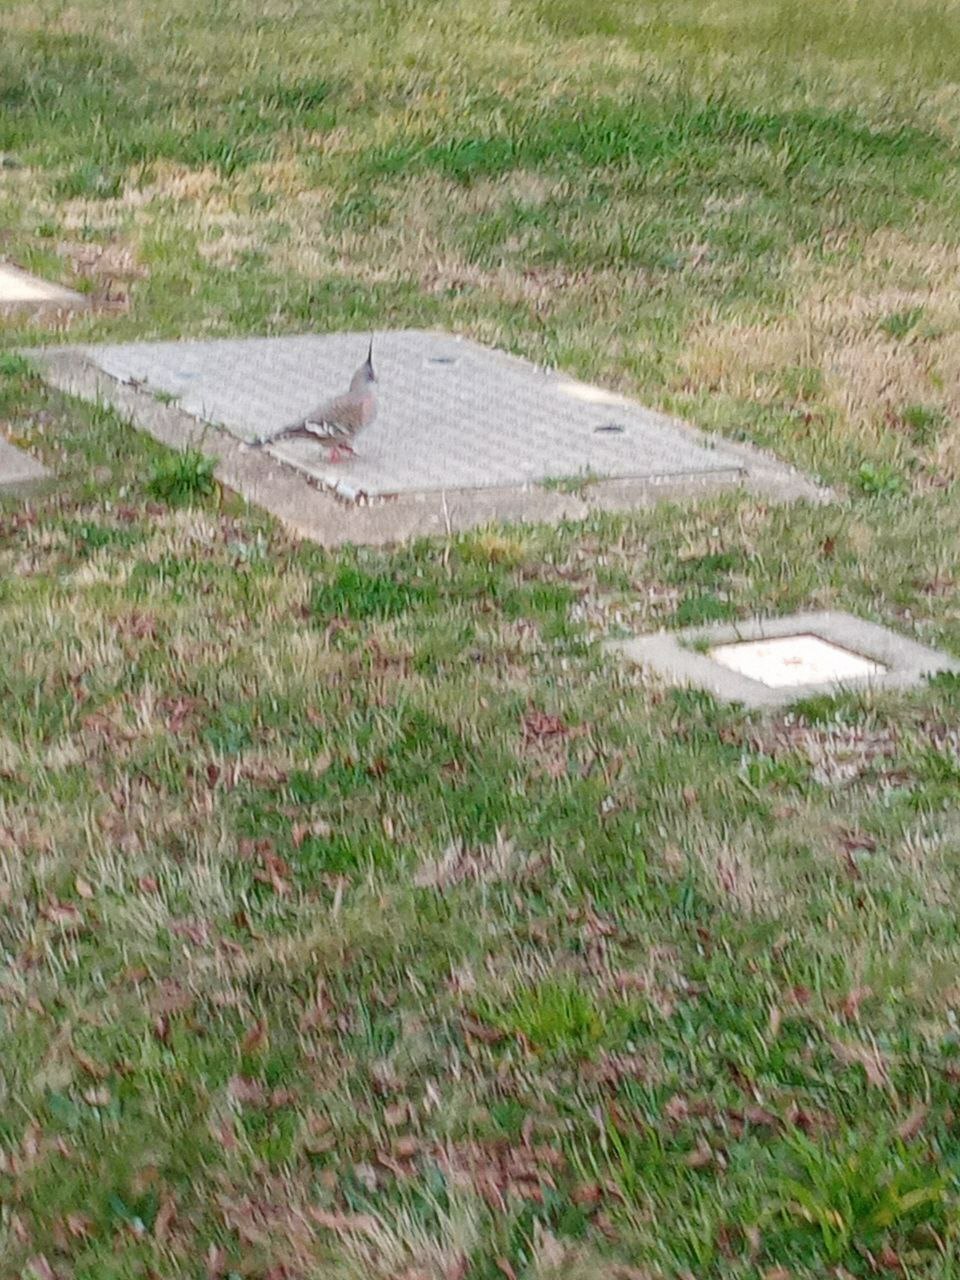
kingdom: Animalia
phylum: Chordata
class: Aves
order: Columbiformes
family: Columbidae
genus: Ocyphaps
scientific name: Ocyphaps lophotes
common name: Crested pigeon
